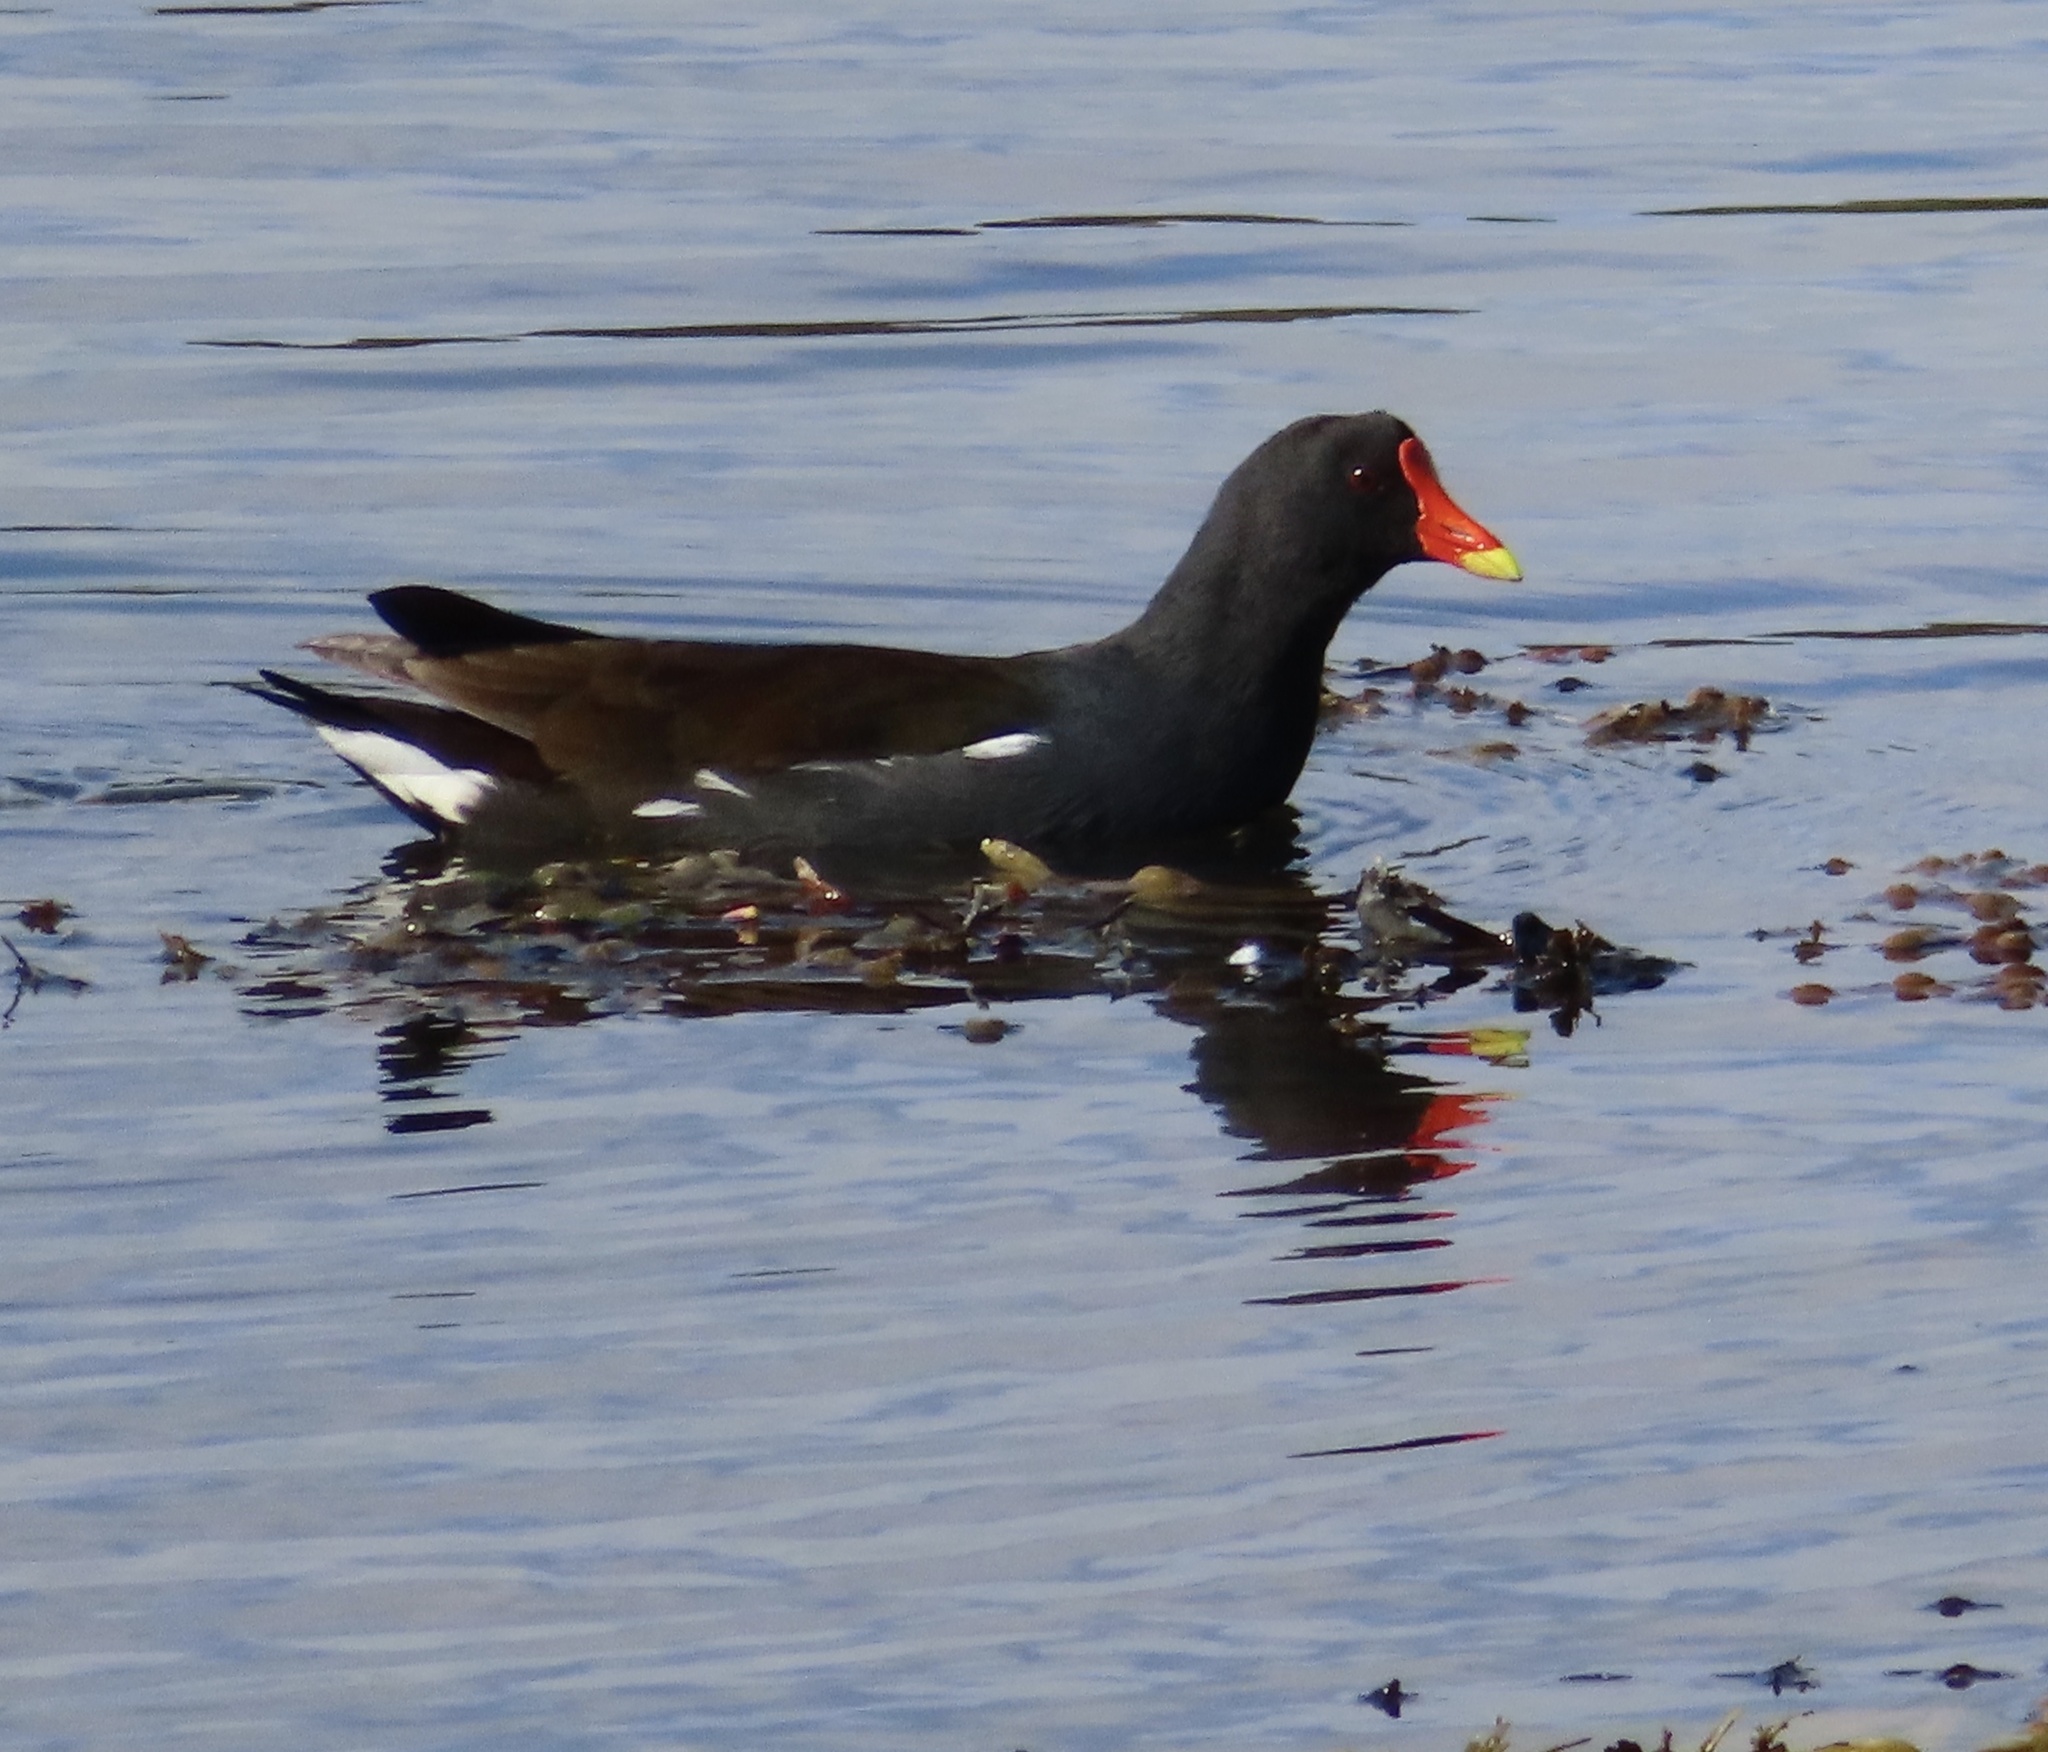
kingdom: Animalia
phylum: Chordata
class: Aves
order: Gruiformes
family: Rallidae
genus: Gallinula
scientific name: Gallinula chloropus
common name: Common moorhen
